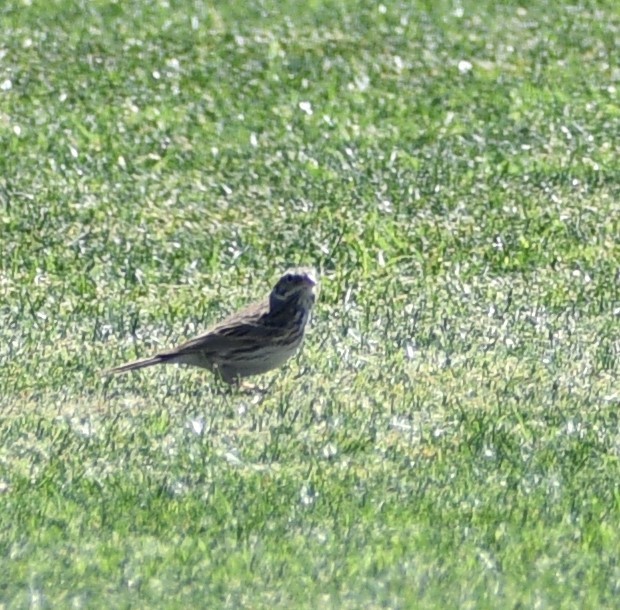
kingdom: Animalia
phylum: Chordata
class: Aves
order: Passeriformes
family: Passerellidae
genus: Pooecetes
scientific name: Pooecetes gramineus
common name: Vesper sparrow
